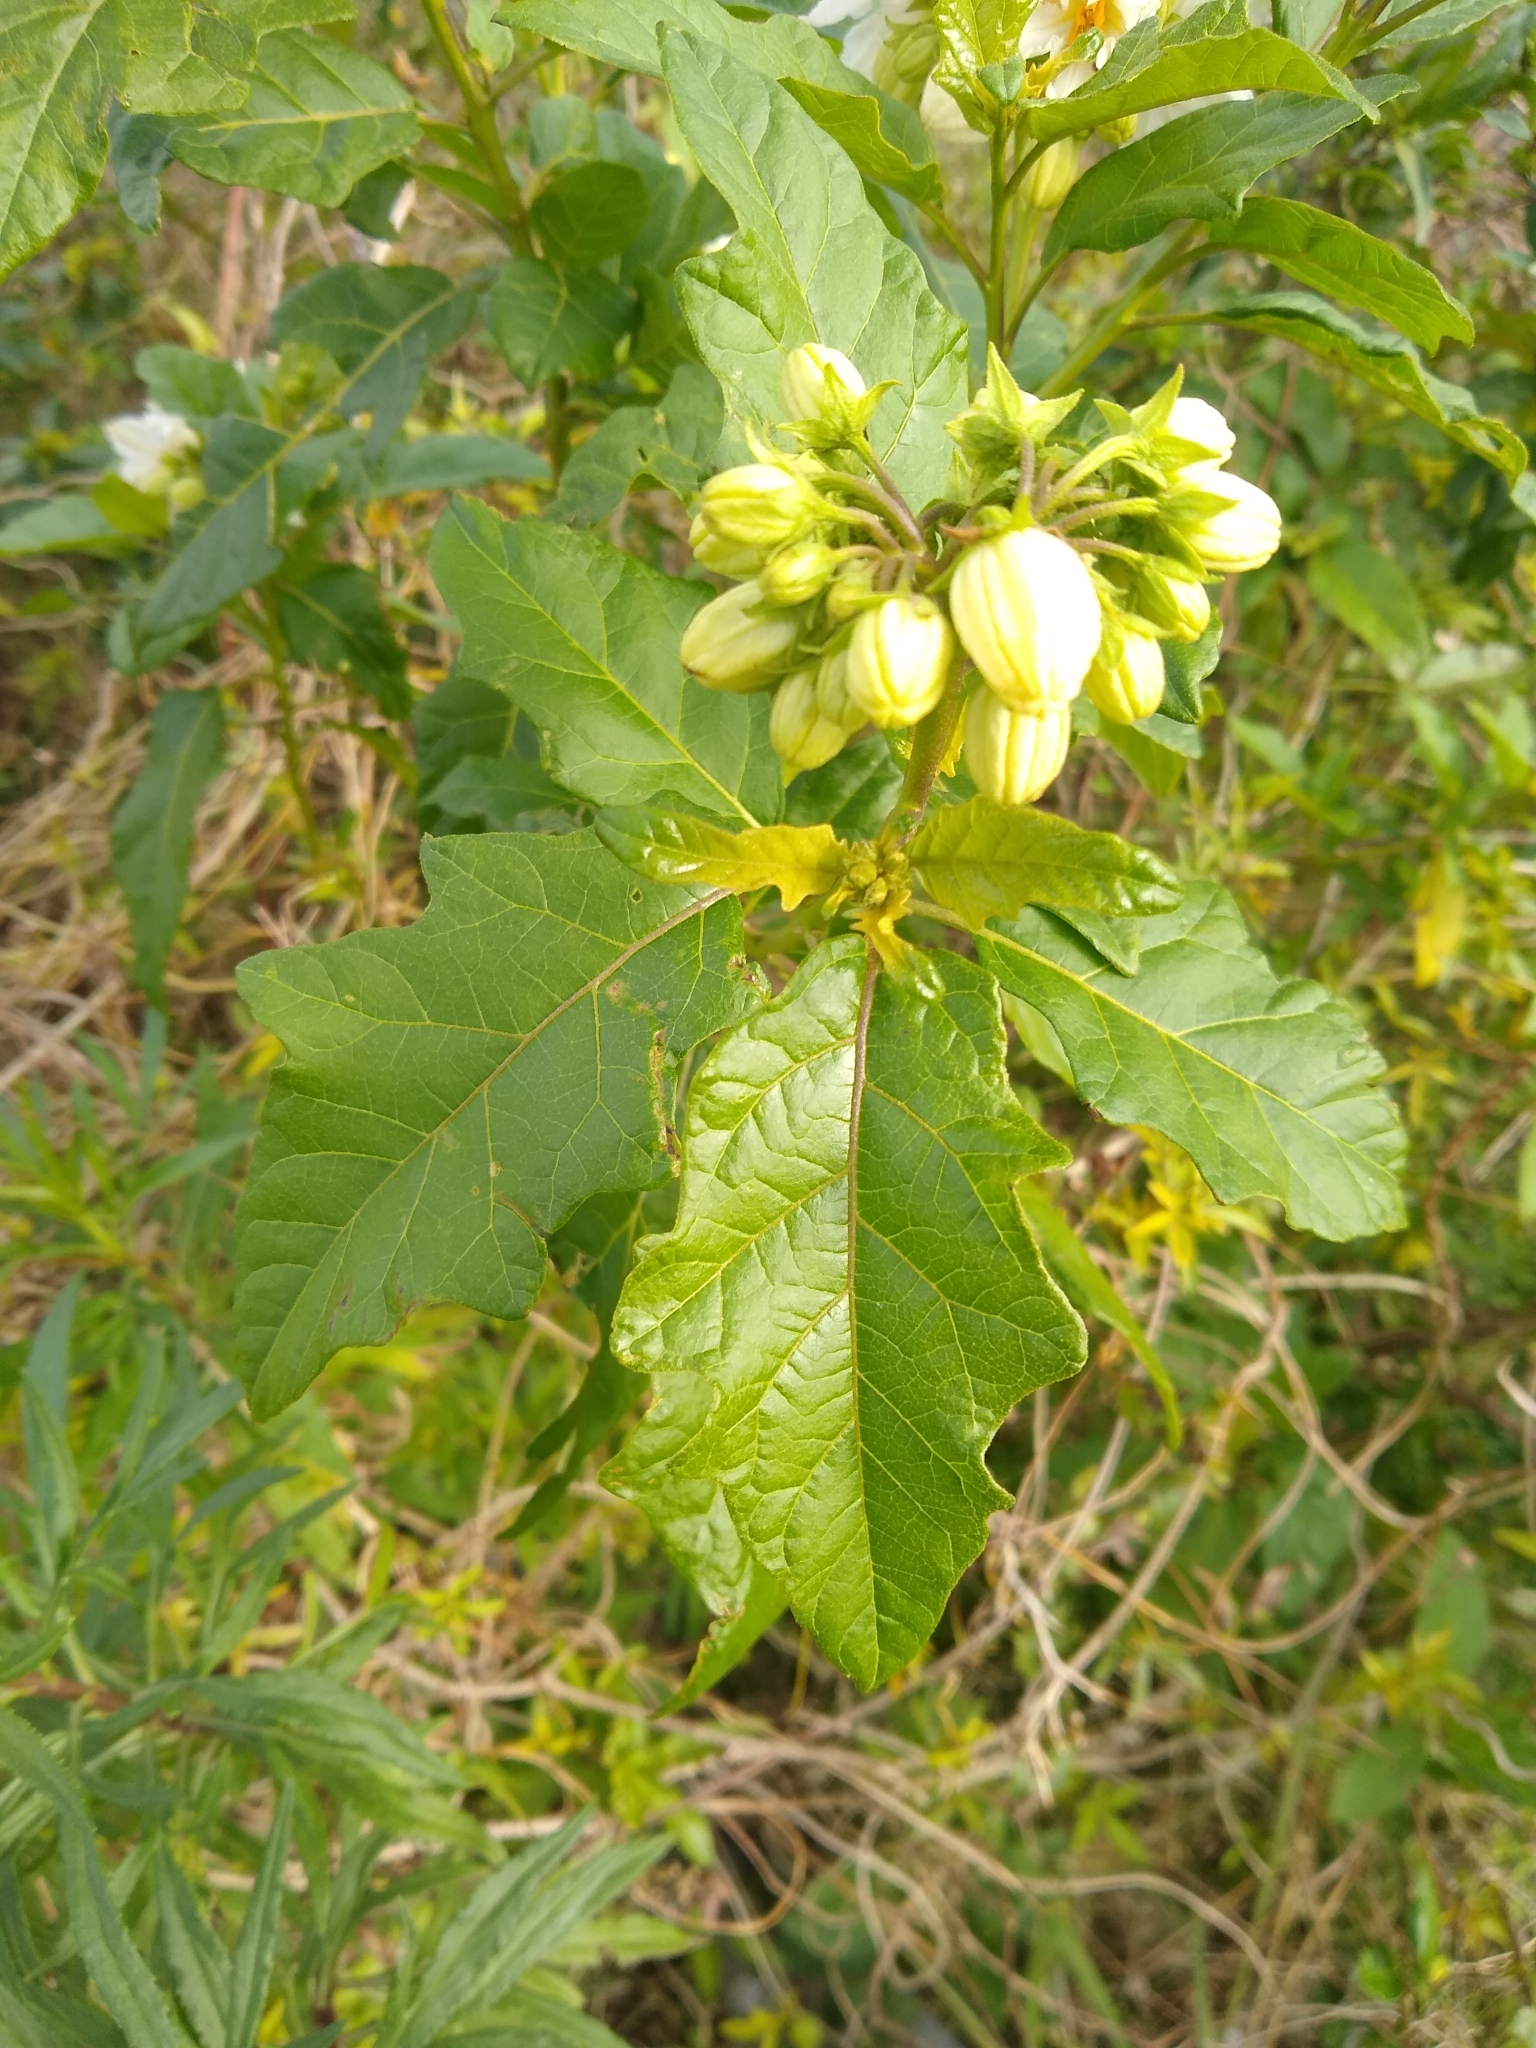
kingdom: Plantae
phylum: Tracheophyta
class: Magnoliopsida
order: Solanales
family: Solanaceae
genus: Solanum
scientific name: Solanum bonariense
